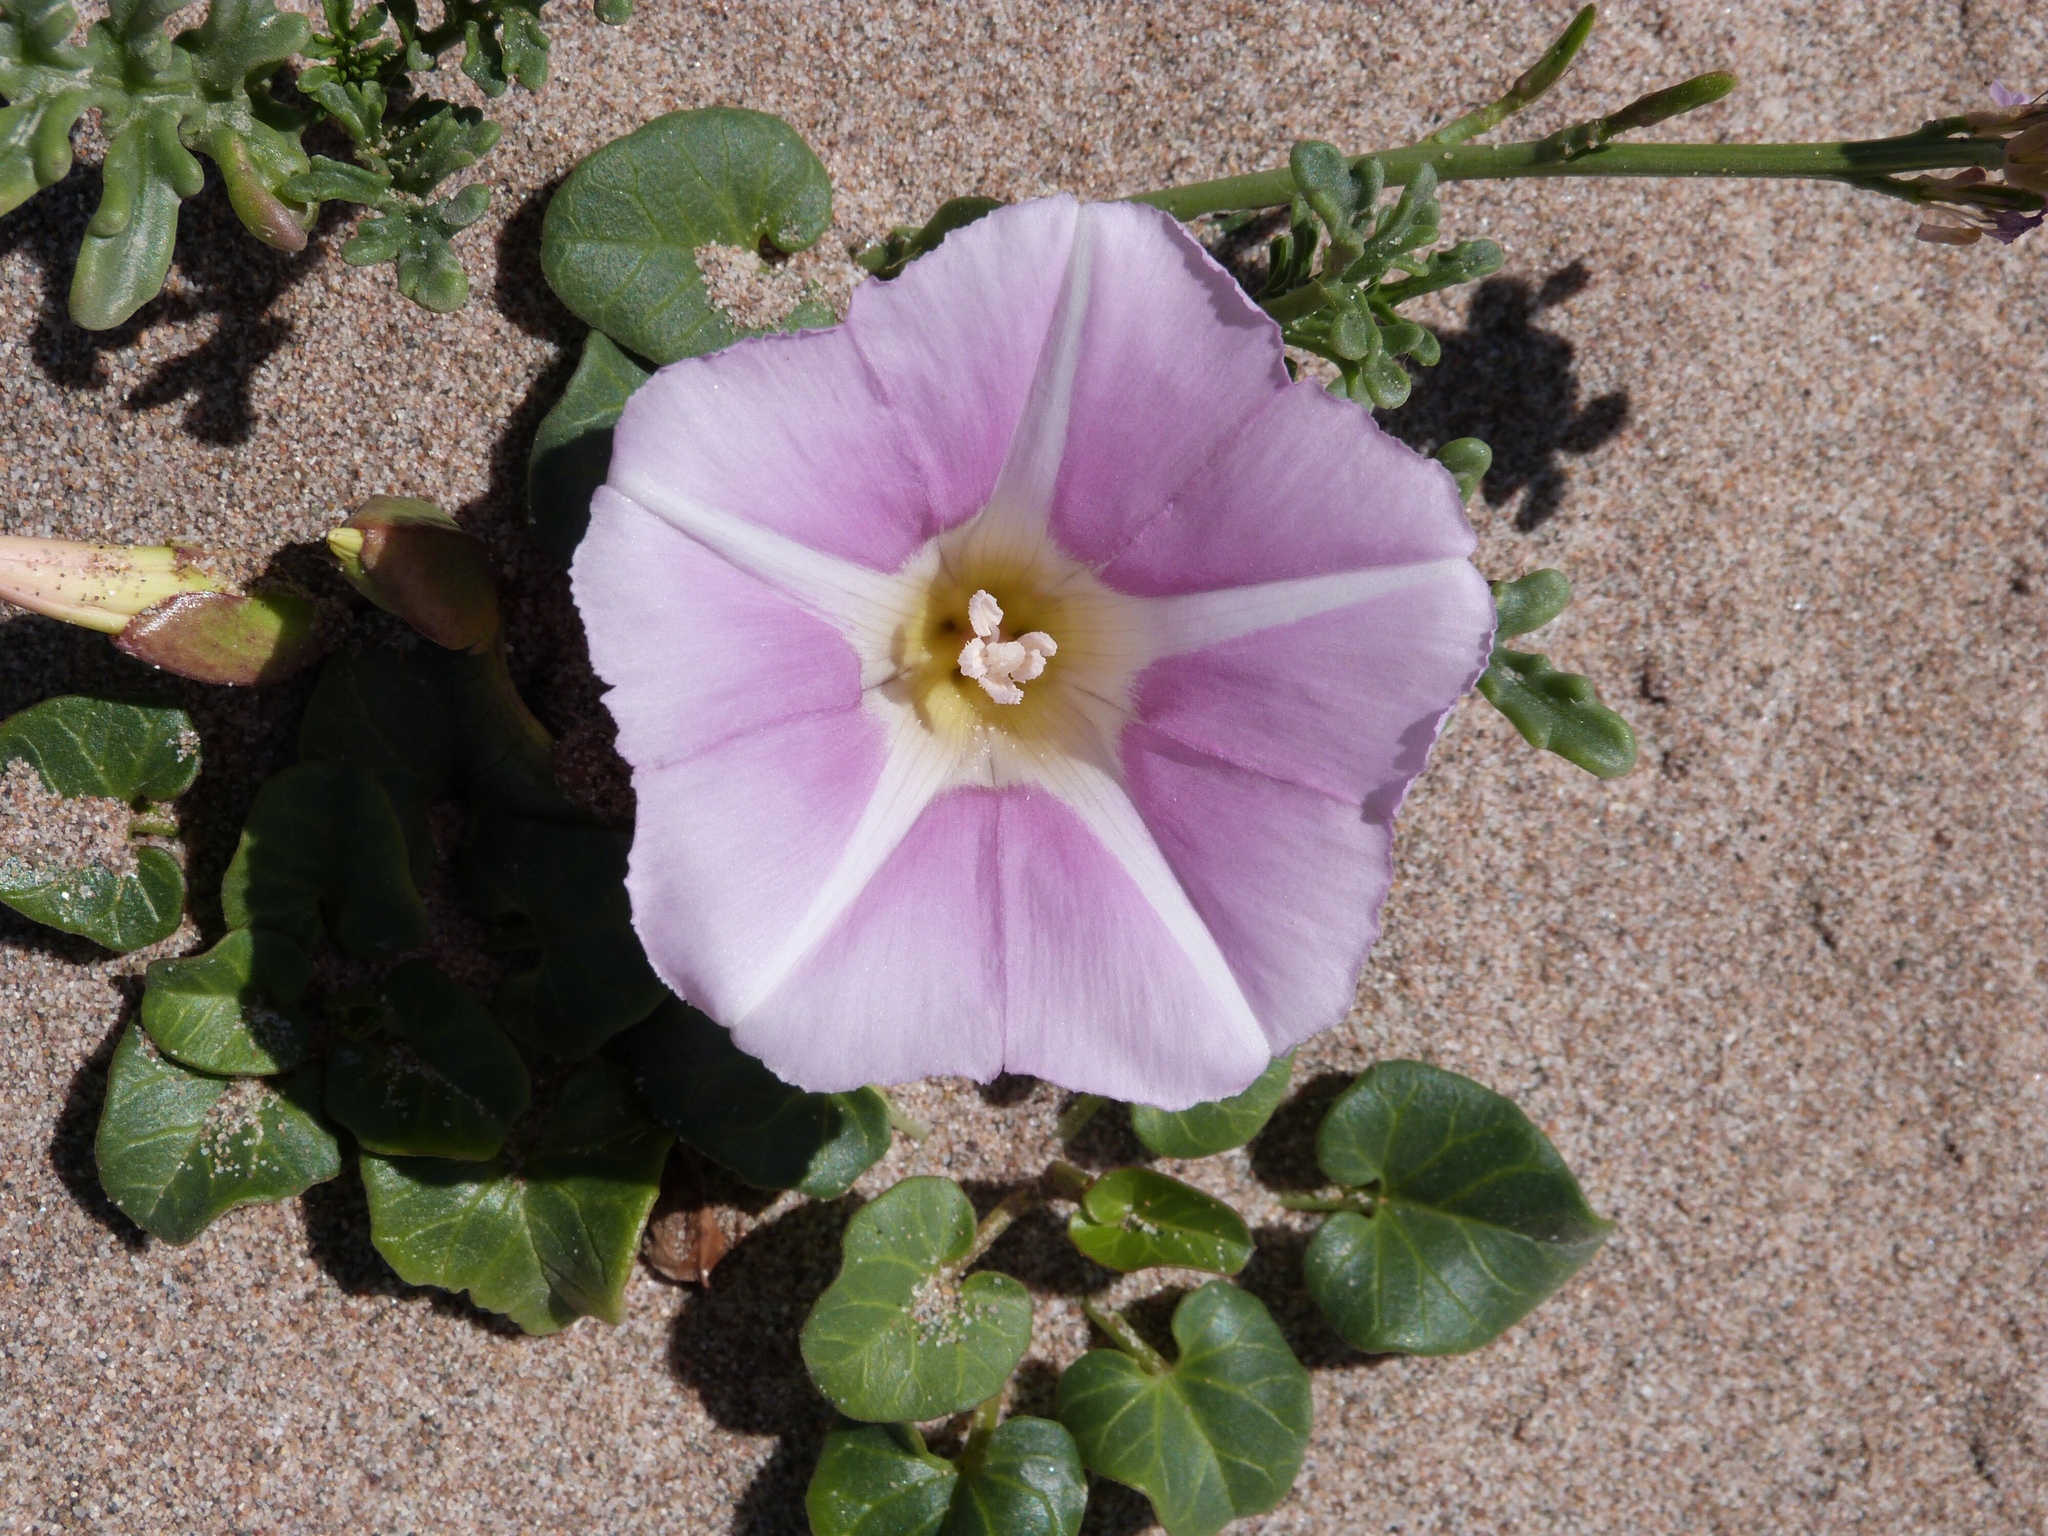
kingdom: Plantae
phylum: Tracheophyta
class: Magnoliopsida
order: Solanales
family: Convolvulaceae
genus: Calystegia
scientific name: Calystegia soldanella
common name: Sea bindweed
